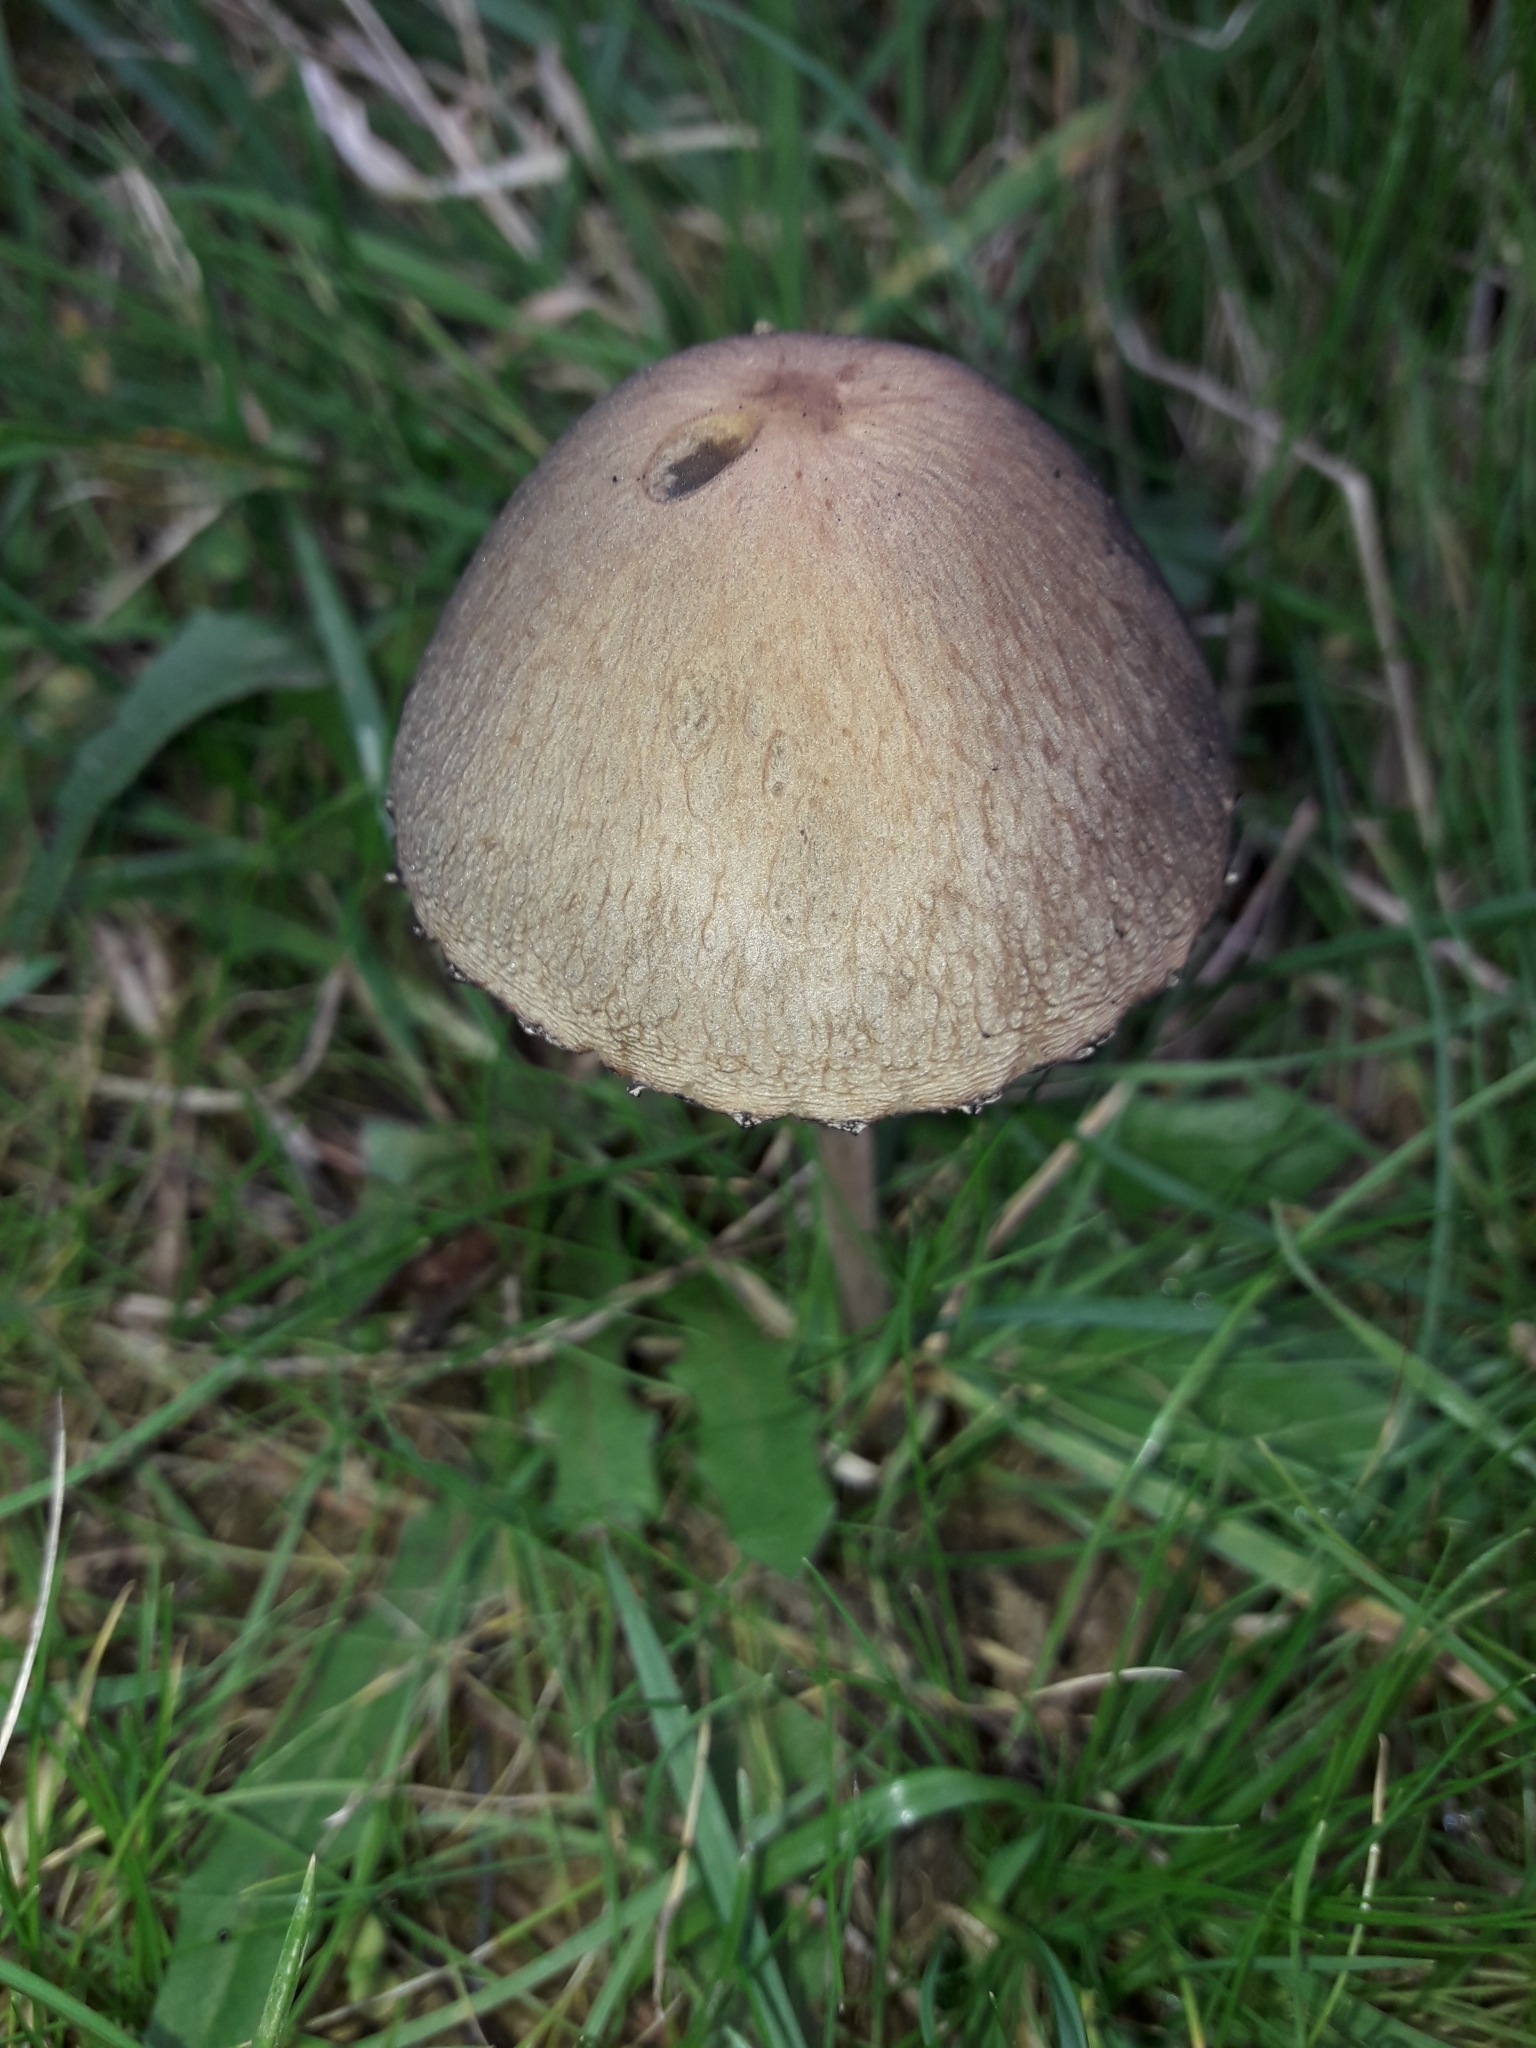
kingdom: Fungi
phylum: Basidiomycota
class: Agaricomycetes
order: Agaricales
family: Bolbitiaceae
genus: Panaeolus
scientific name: Panaeolus papilionaceus
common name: Petticoat mottlegill
